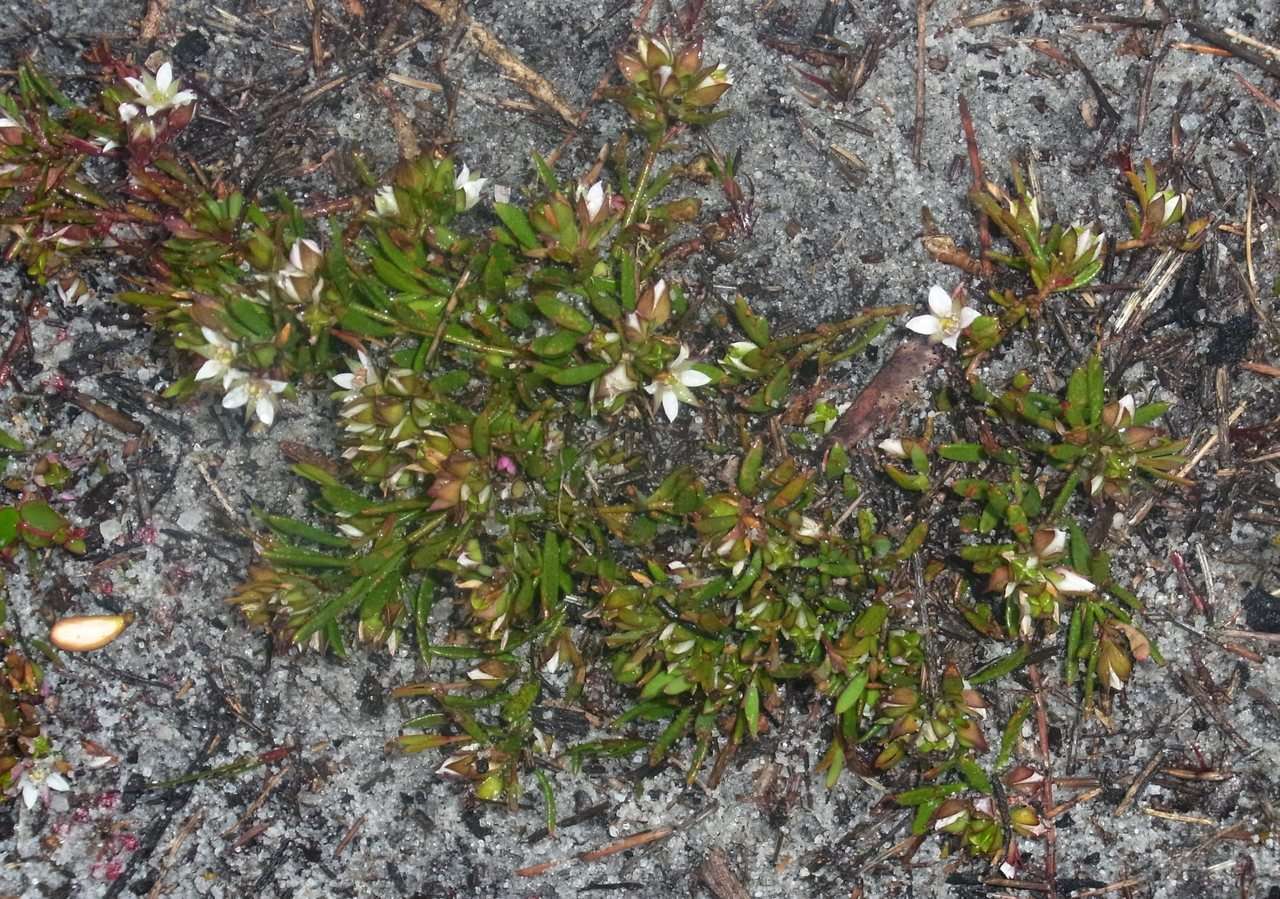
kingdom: Plantae
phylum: Tracheophyta
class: Magnoliopsida
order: Sapindales
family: Rutaceae
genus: Boronia
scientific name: Boronia parviflora
